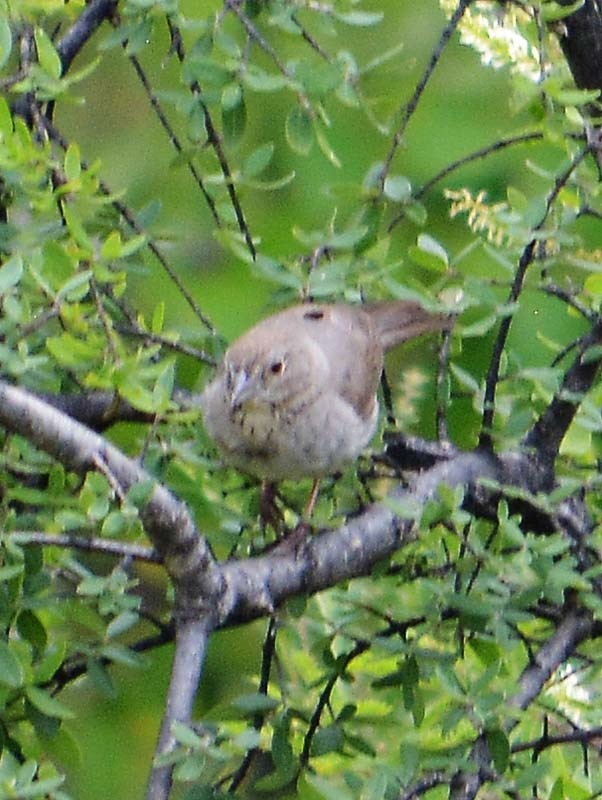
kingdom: Animalia
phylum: Chordata
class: Aves
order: Passeriformes
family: Passerellidae
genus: Melozone
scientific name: Melozone fusca
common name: Canyon towhee
